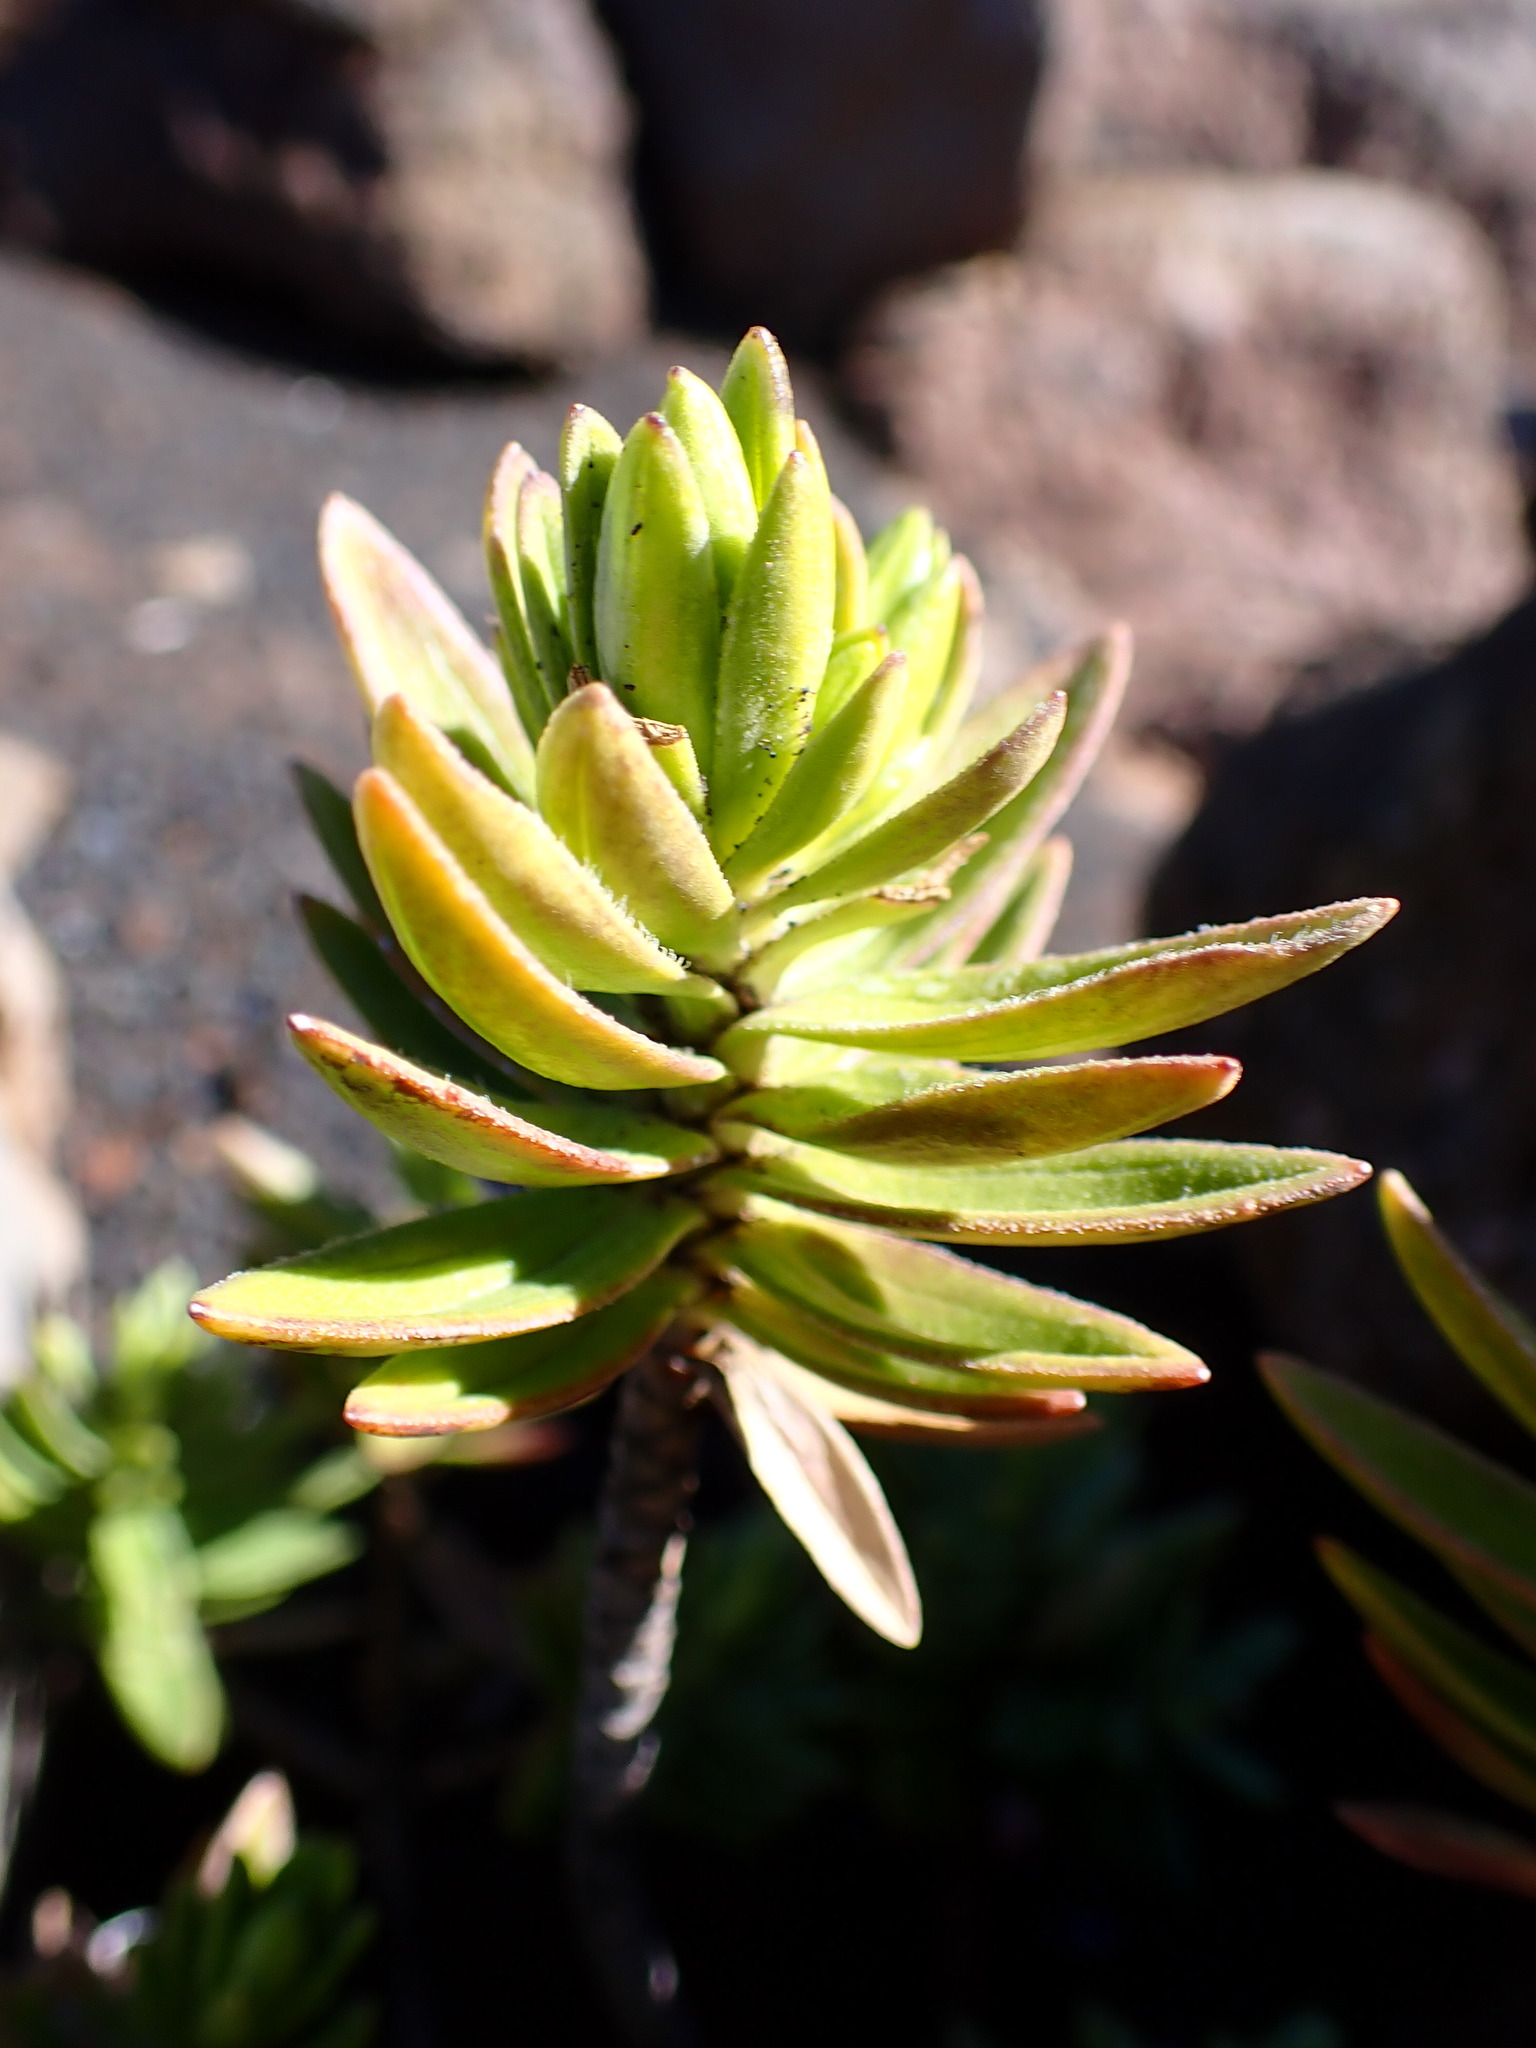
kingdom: Plantae
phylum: Tracheophyta
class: Magnoliopsida
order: Asterales
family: Asteraceae
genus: Dubautia
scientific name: Dubautia menziesii
